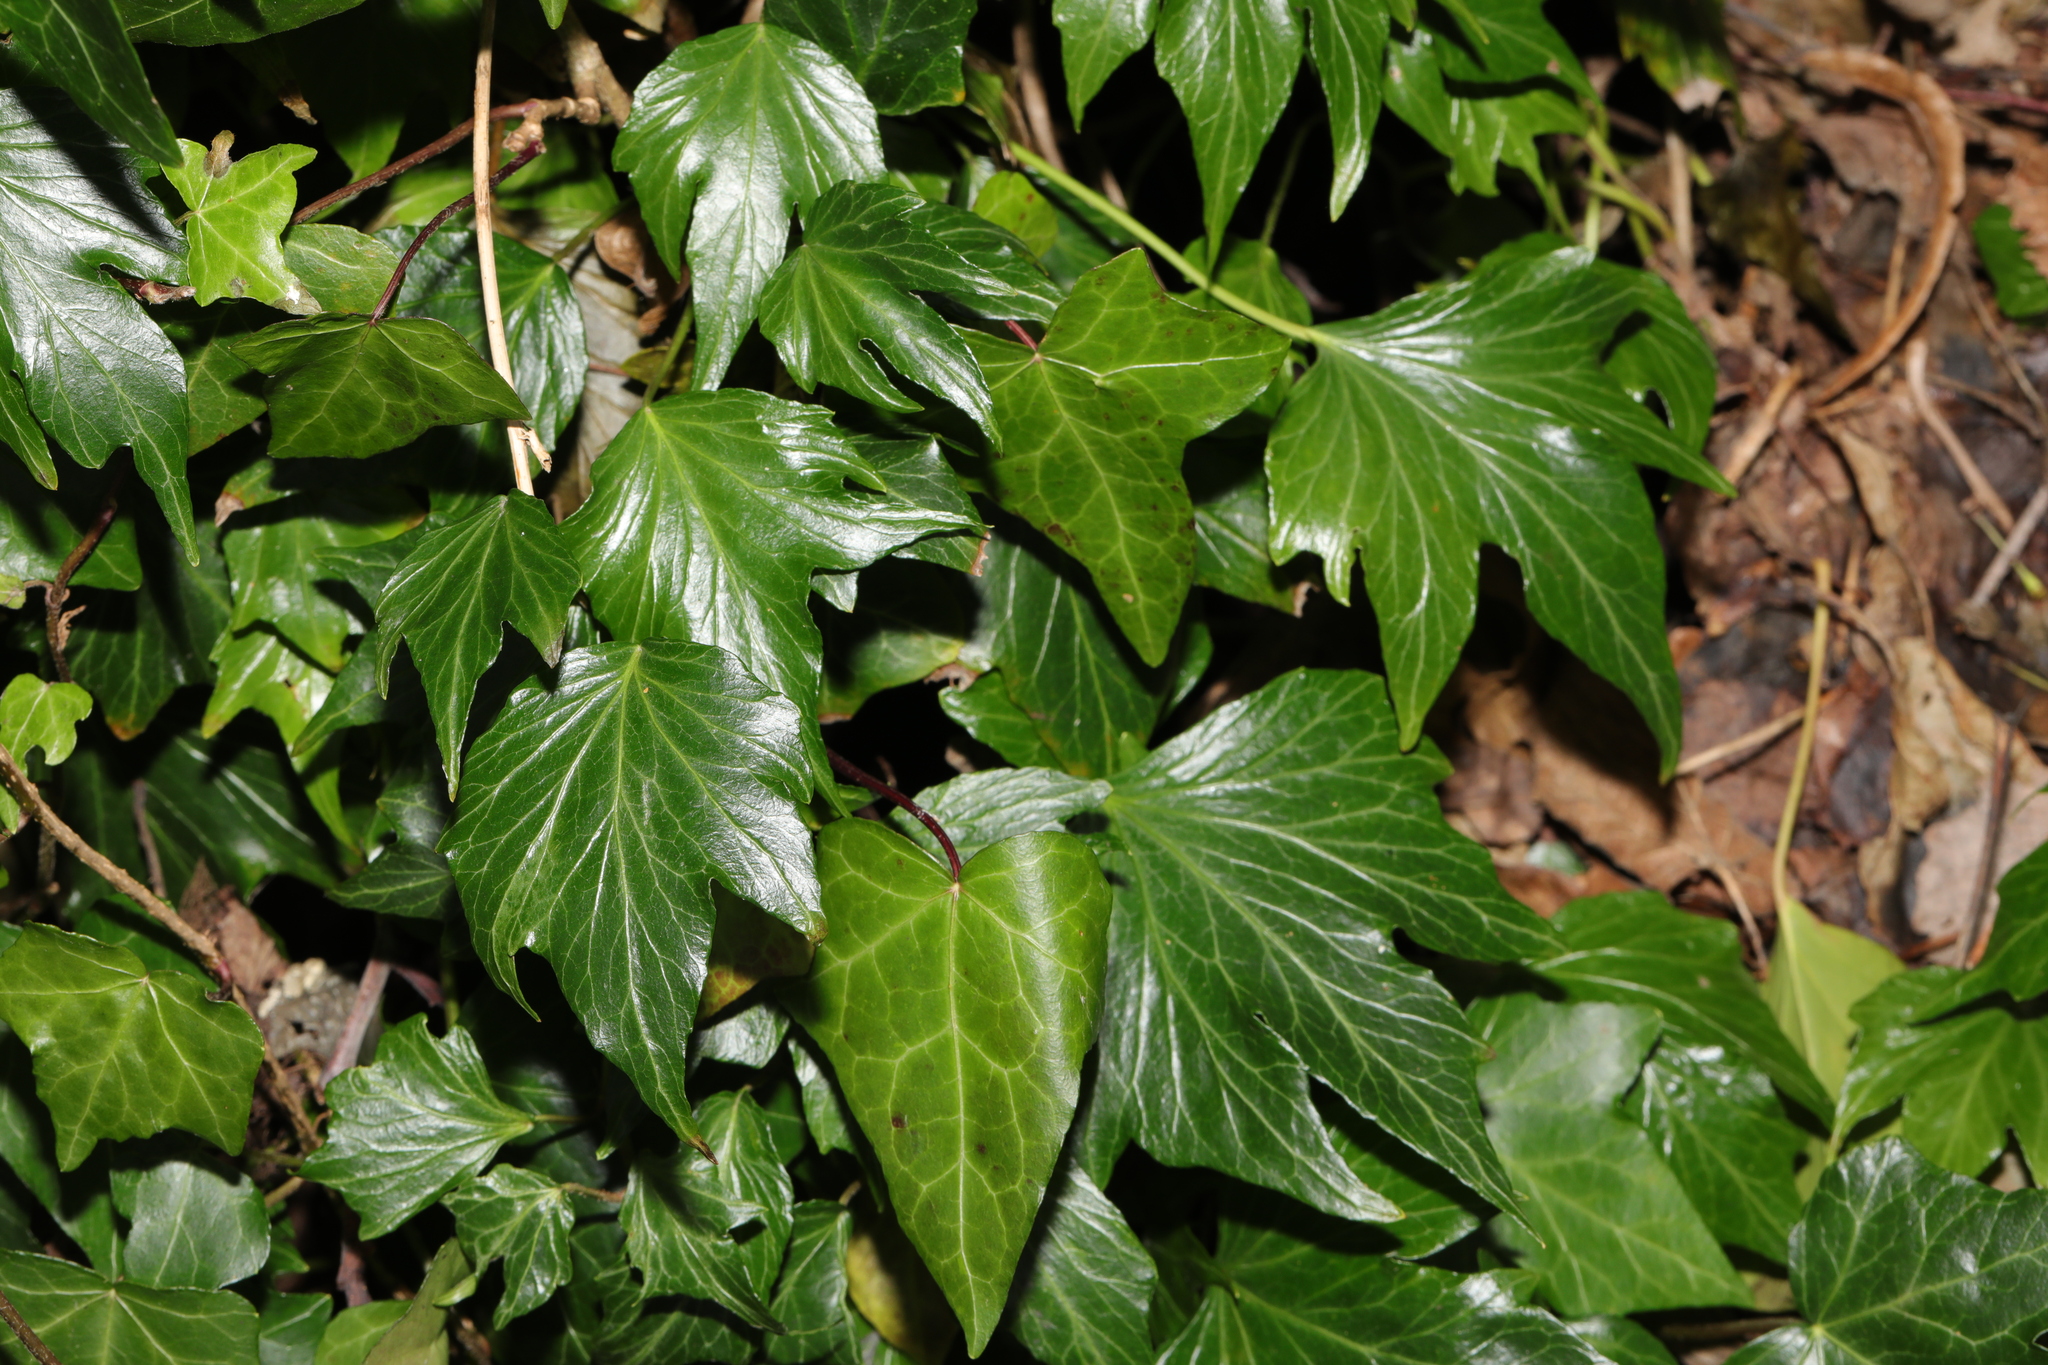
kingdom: Plantae
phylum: Tracheophyta
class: Magnoliopsida
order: Apiales
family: Araliaceae
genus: Hedera
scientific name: Hedera colchica
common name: Persian ivy
